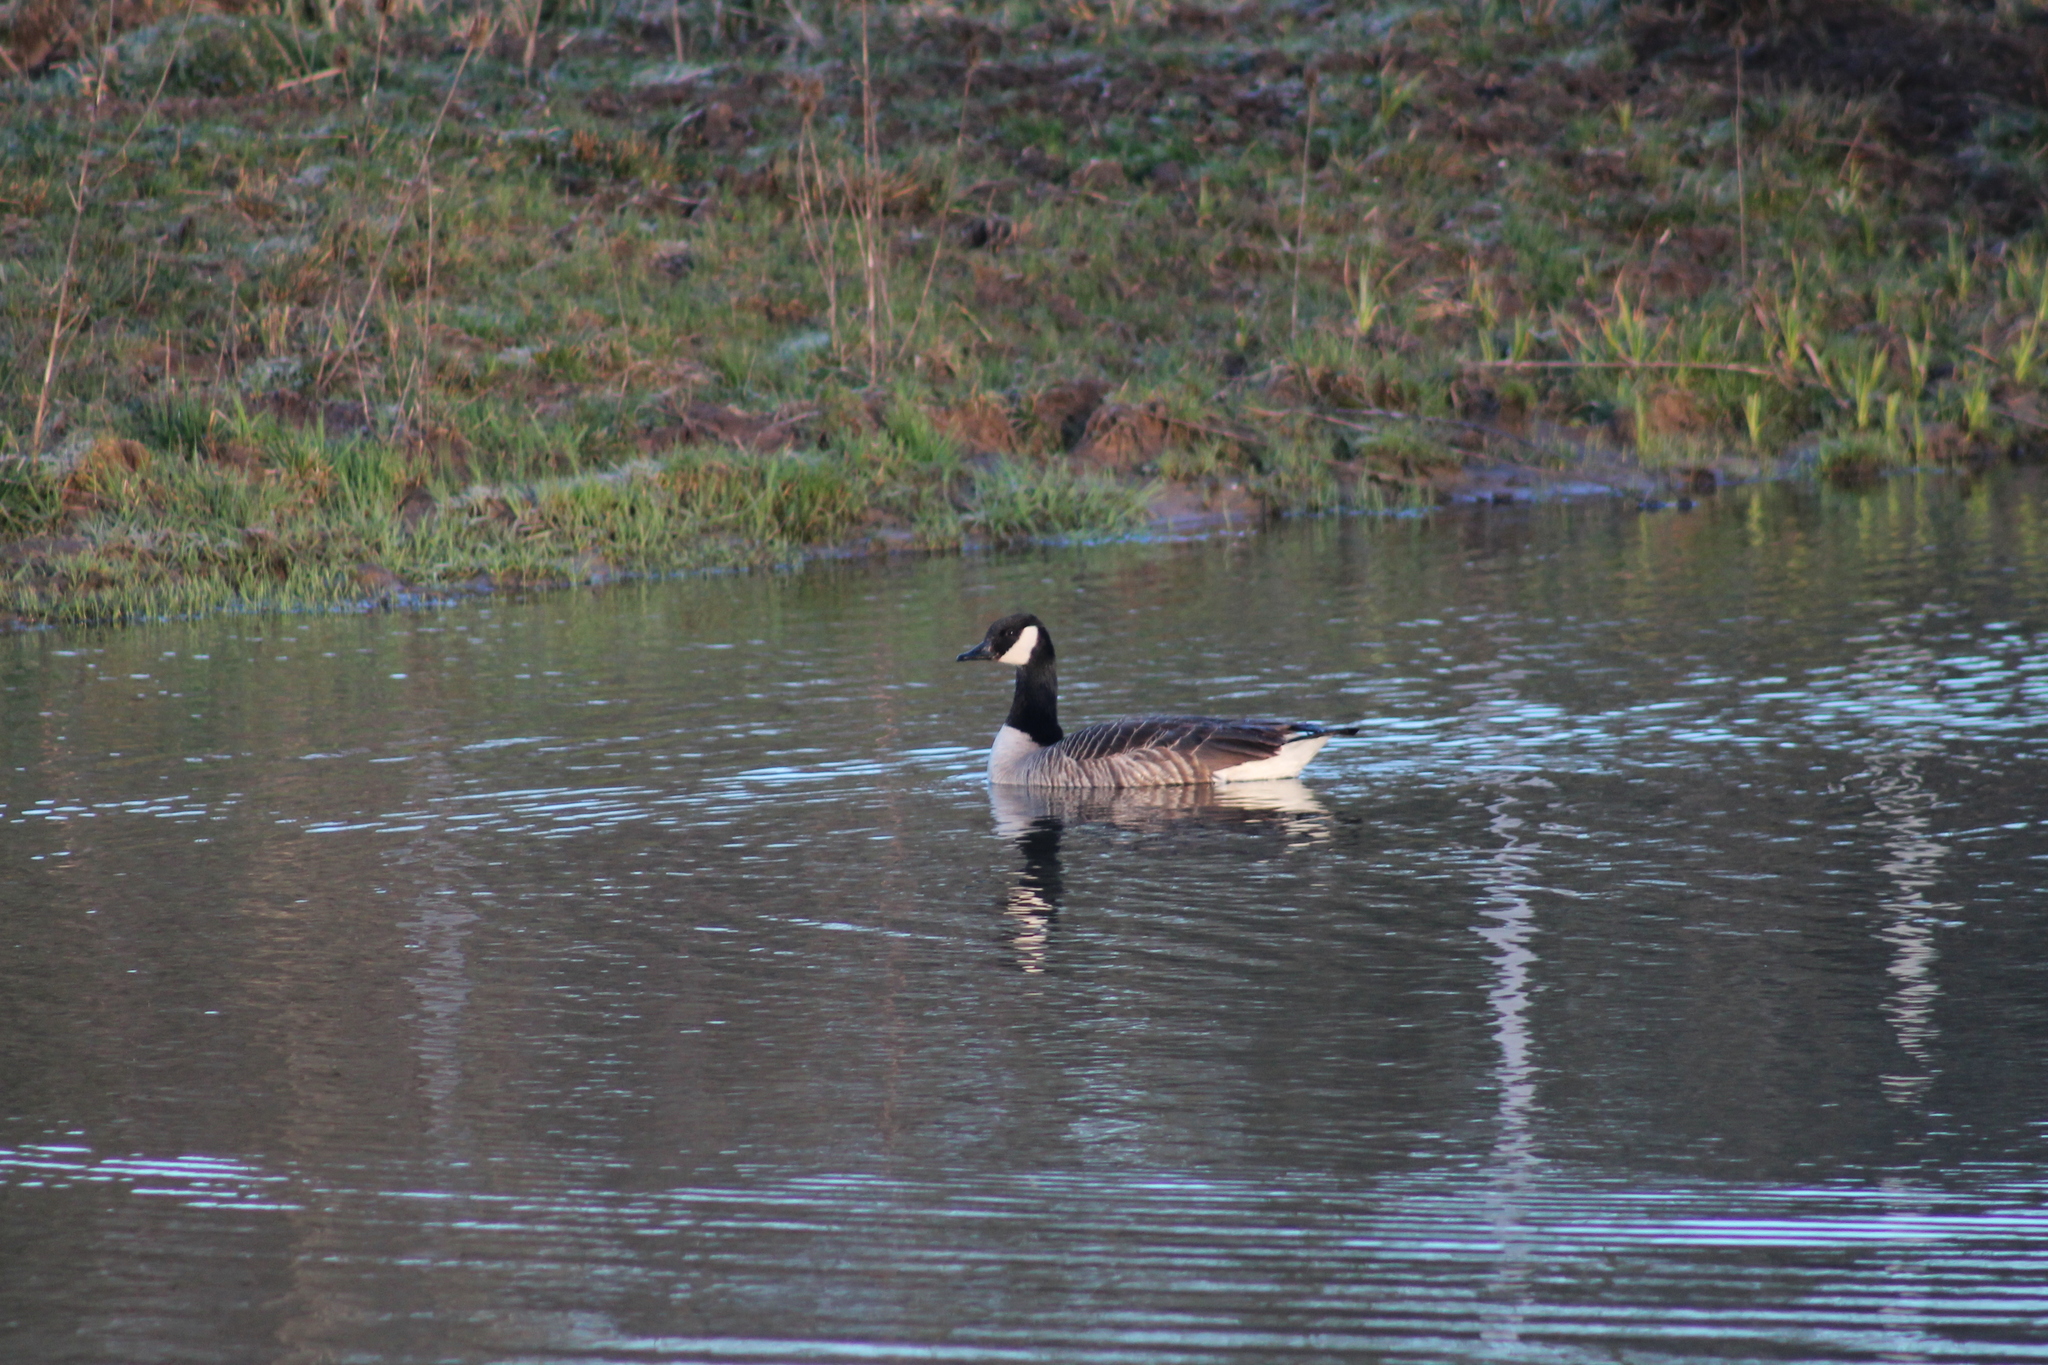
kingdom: Animalia
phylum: Chordata
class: Aves
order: Anseriformes
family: Anatidae
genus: Branta
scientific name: Branta canadensis
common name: Canada goose
